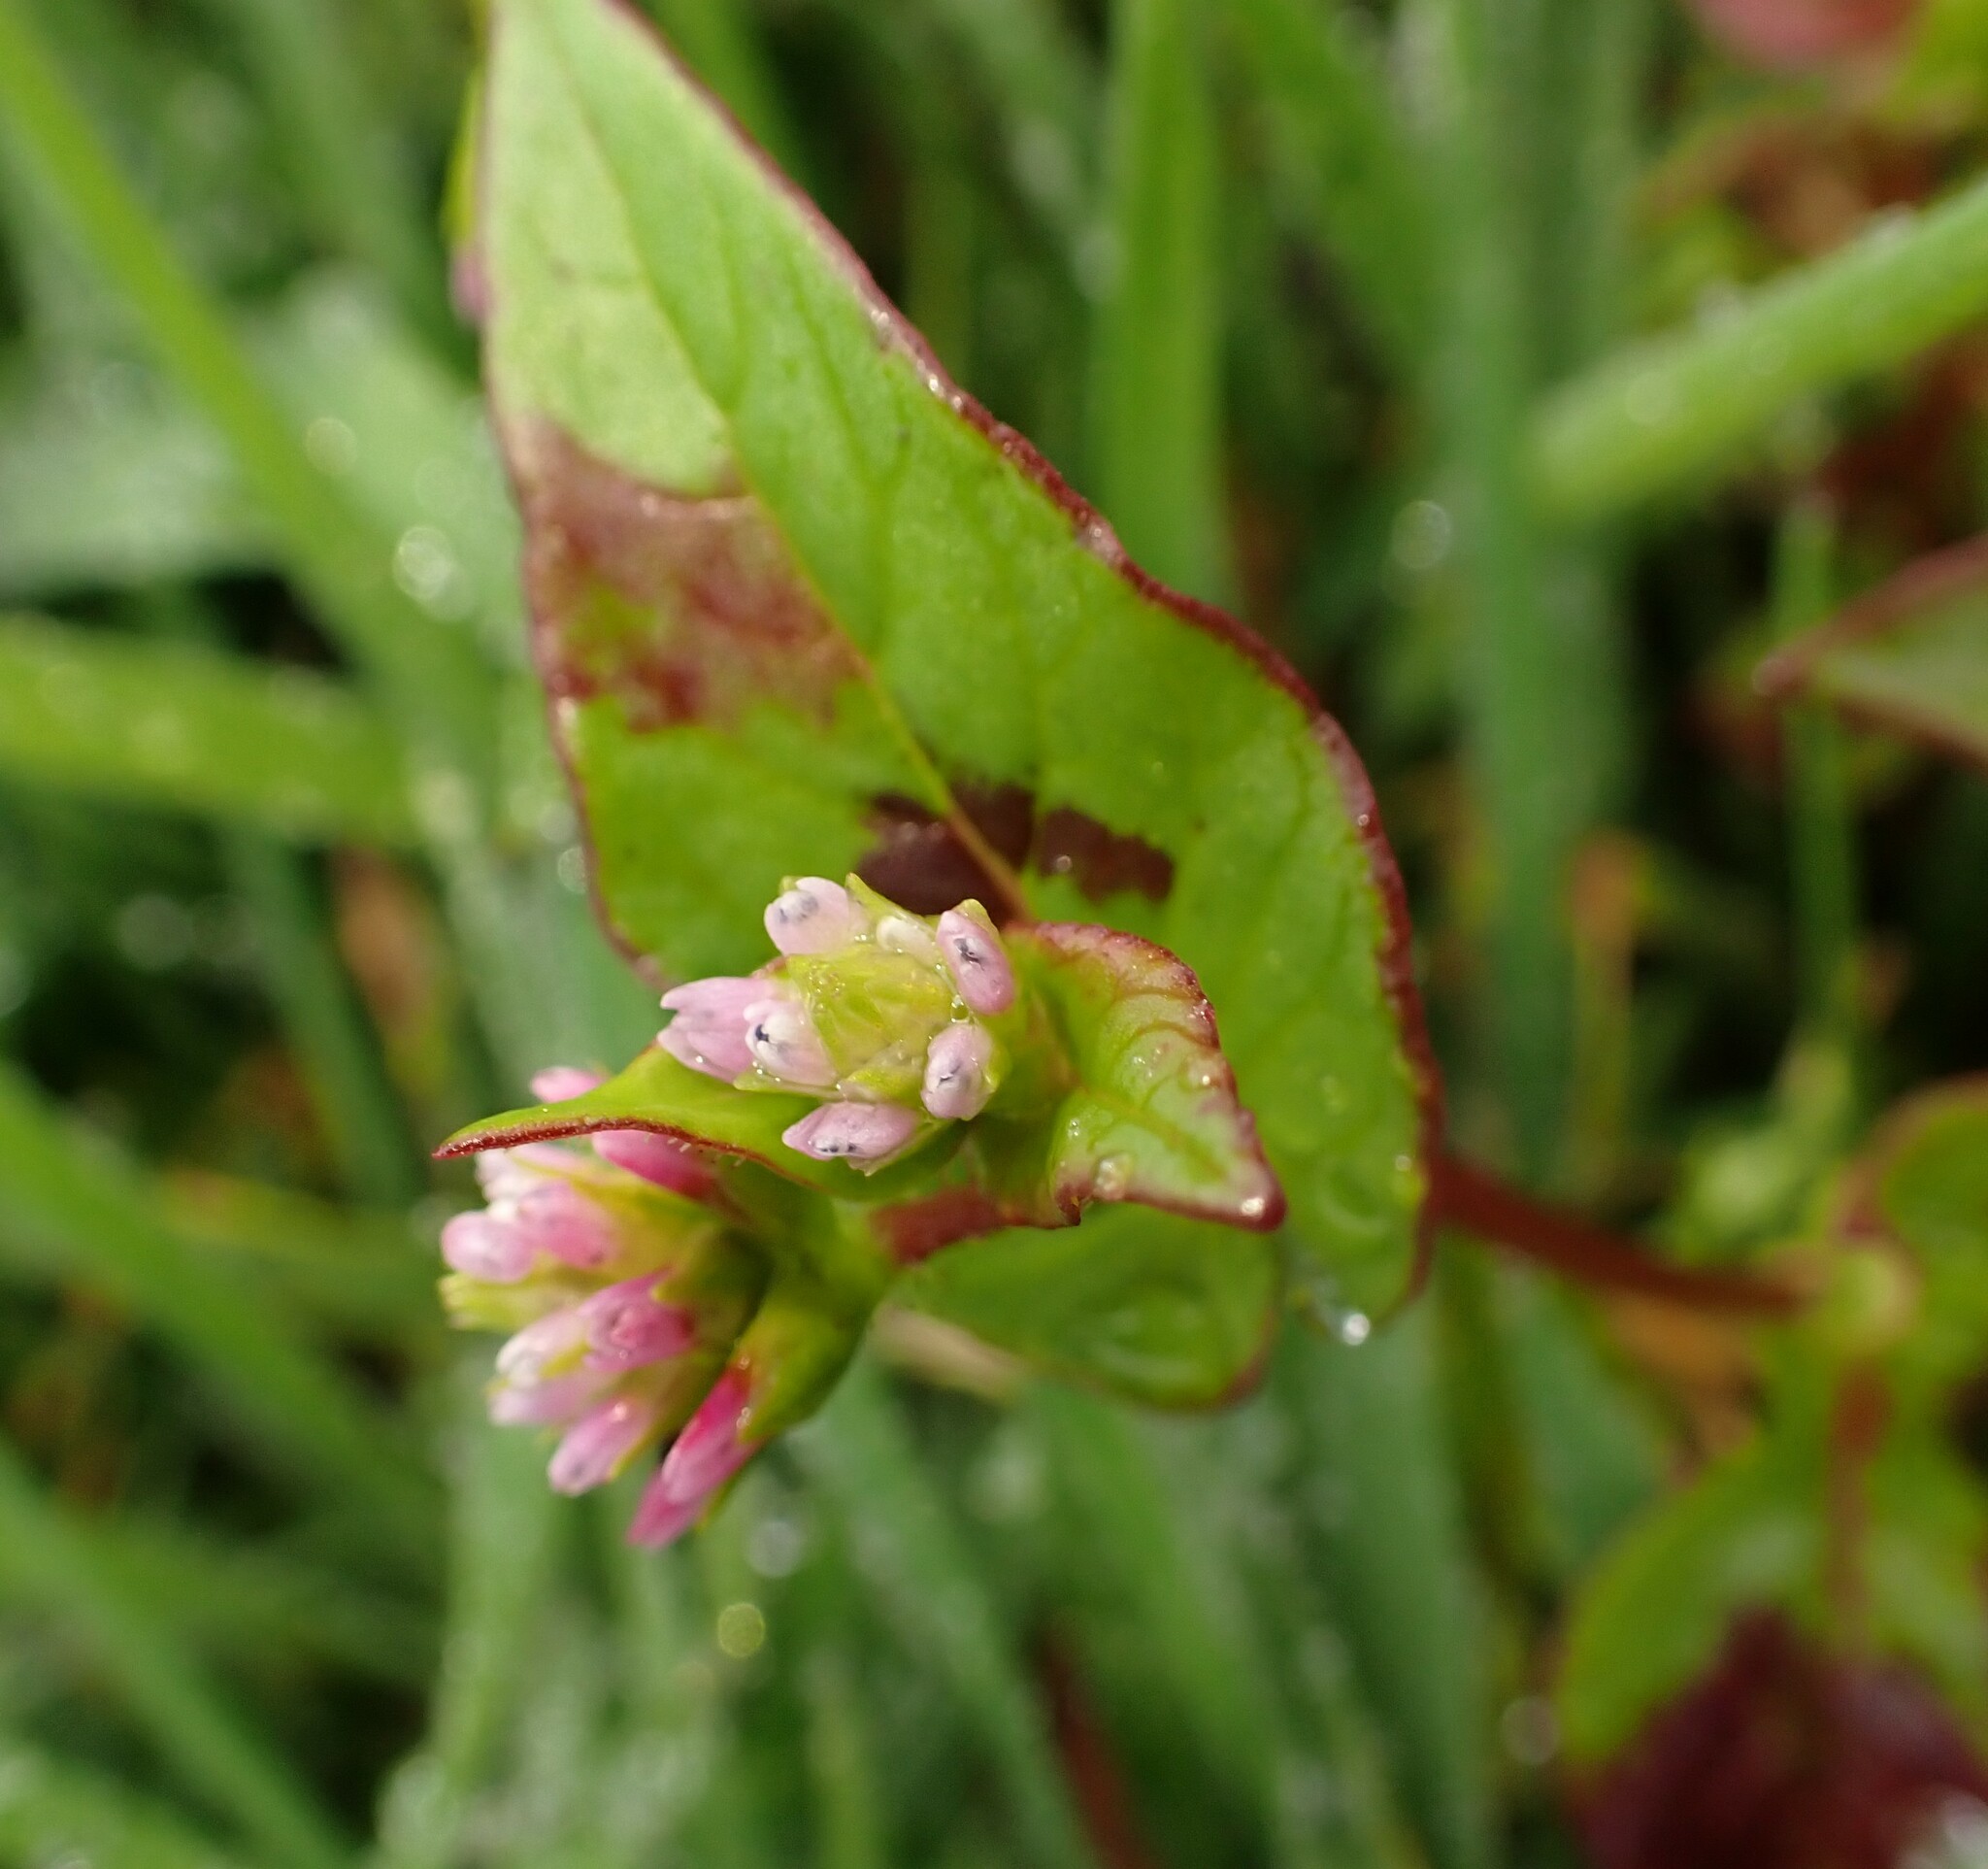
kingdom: Plantae
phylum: Tracheophyta
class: Magnoliopsida
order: Caryophyllales
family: Polygonaceae
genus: Persicaria
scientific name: Persicaria nepalensis
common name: Nepal persicaria
